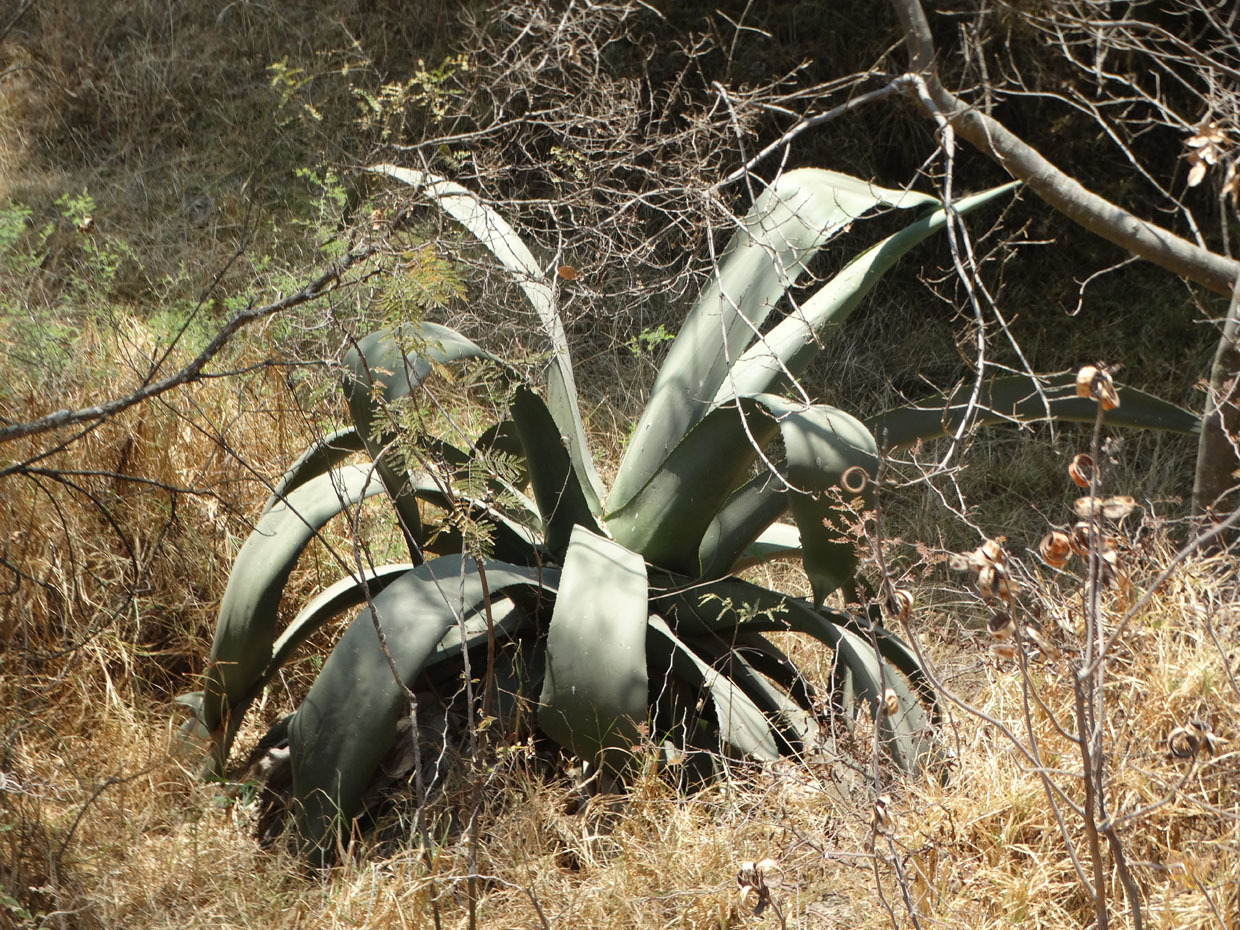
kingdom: Plantae
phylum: Tracheophyta
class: Liliopsida
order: Asparagales
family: Asparagaceae
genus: Agave
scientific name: Agave salmiana
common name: Pulque agave
